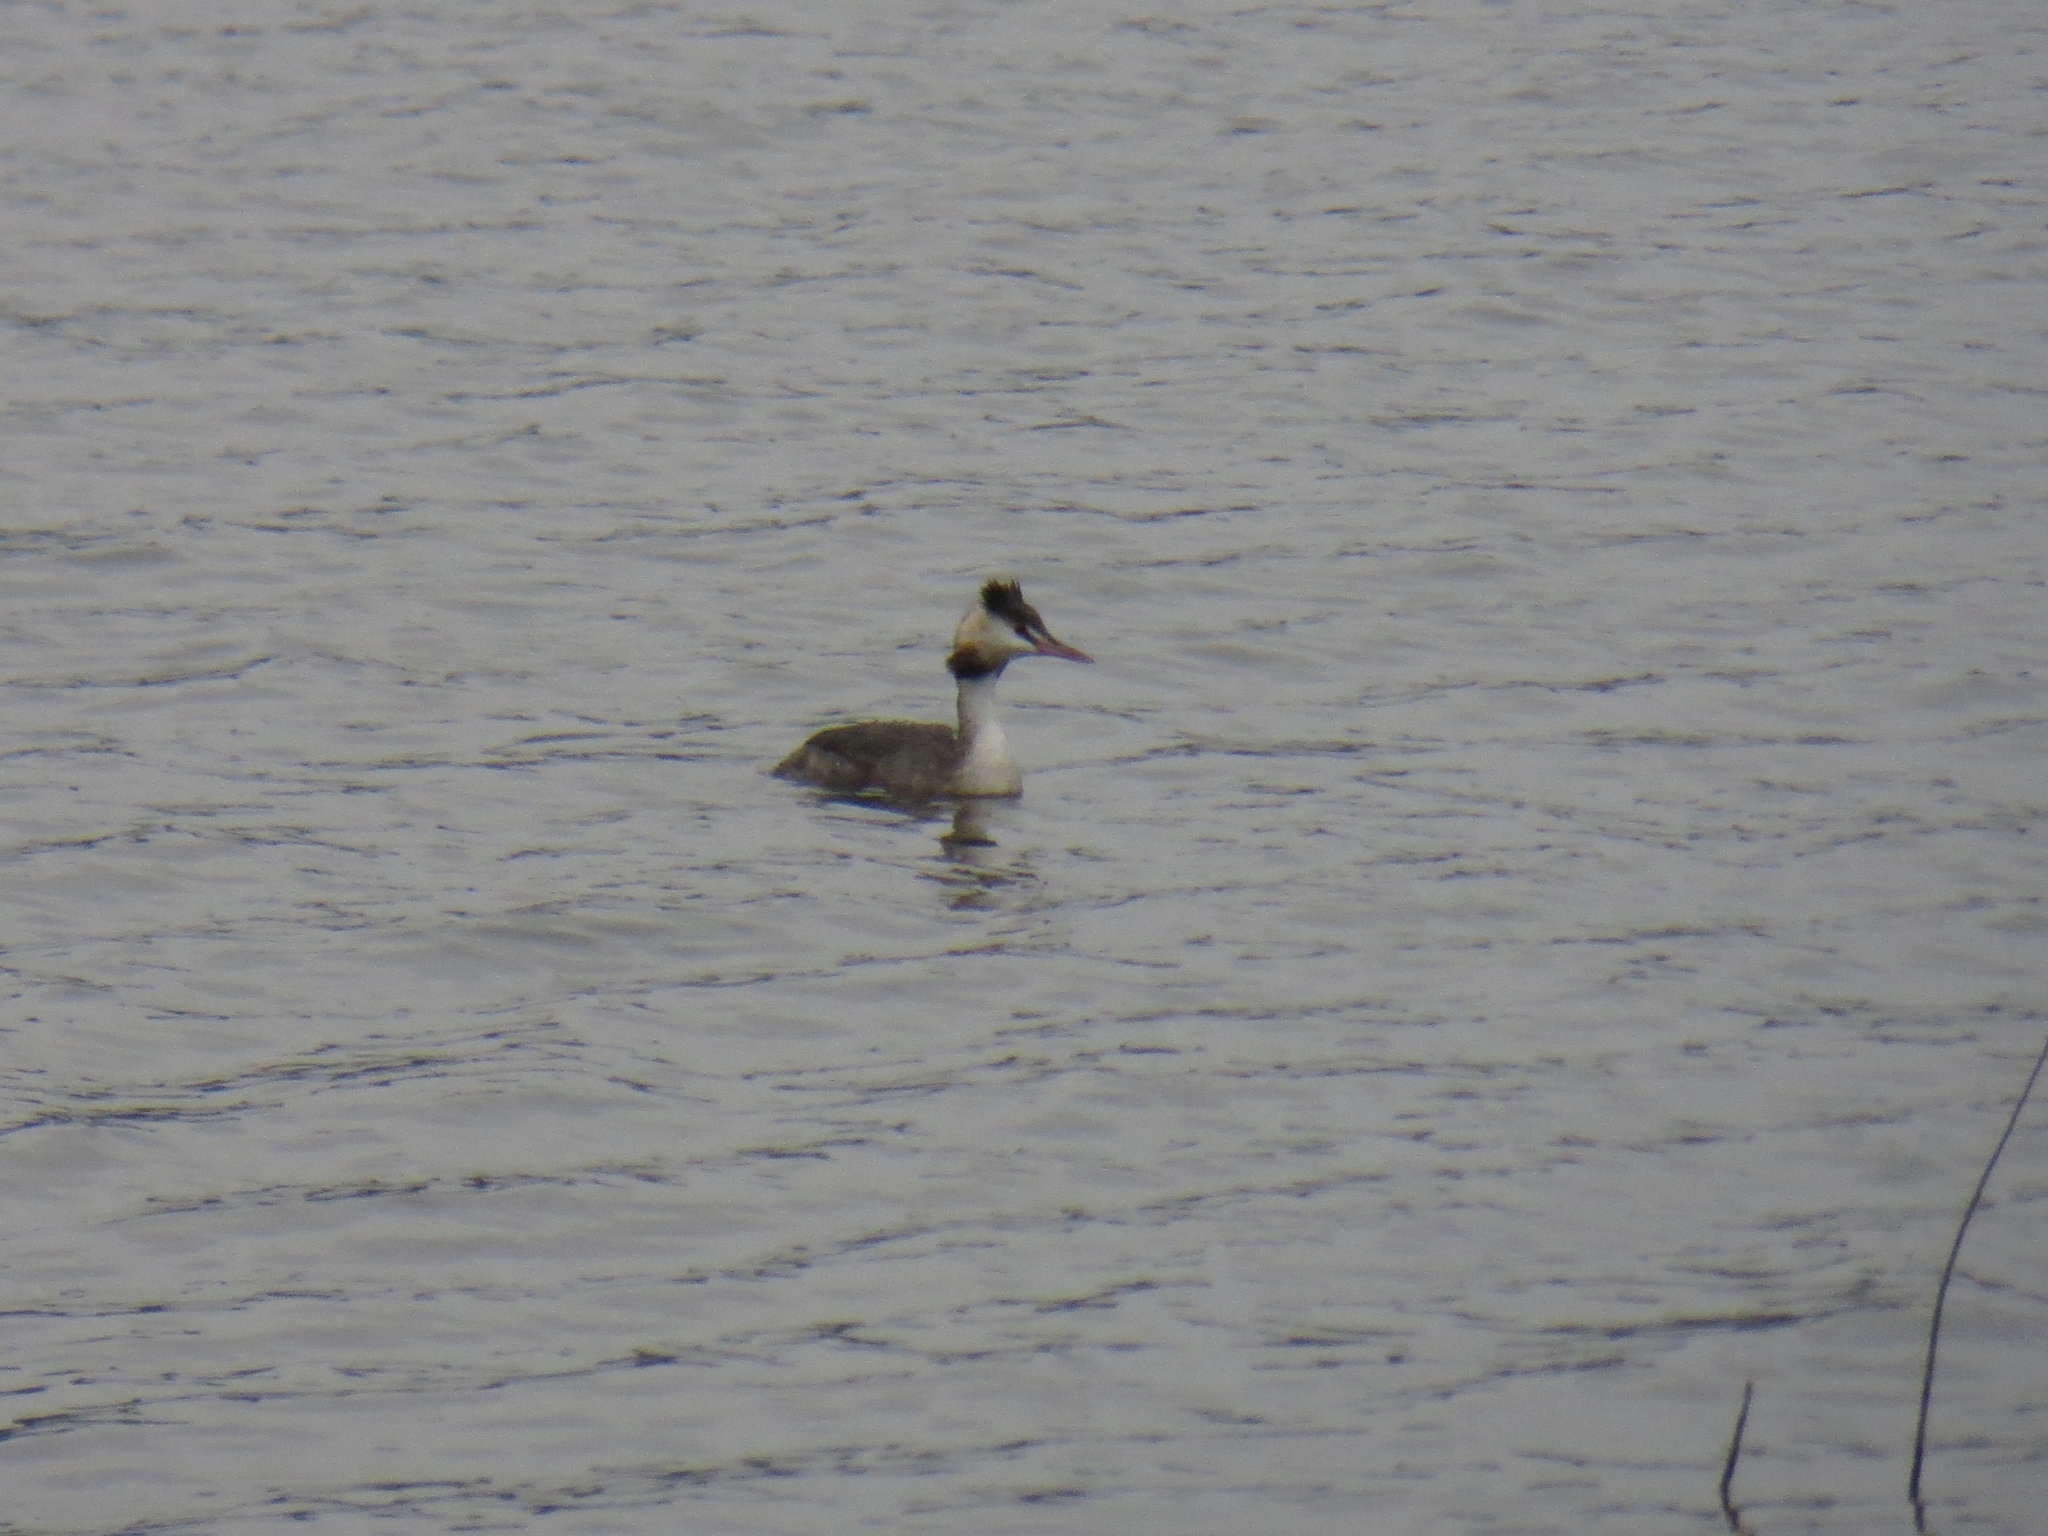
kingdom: Animalia
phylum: Chordata
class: Aves
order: Podicipediformes
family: Podicipedidae
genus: Podiceps
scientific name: Podiceps cristatus
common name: Great crested grebe
